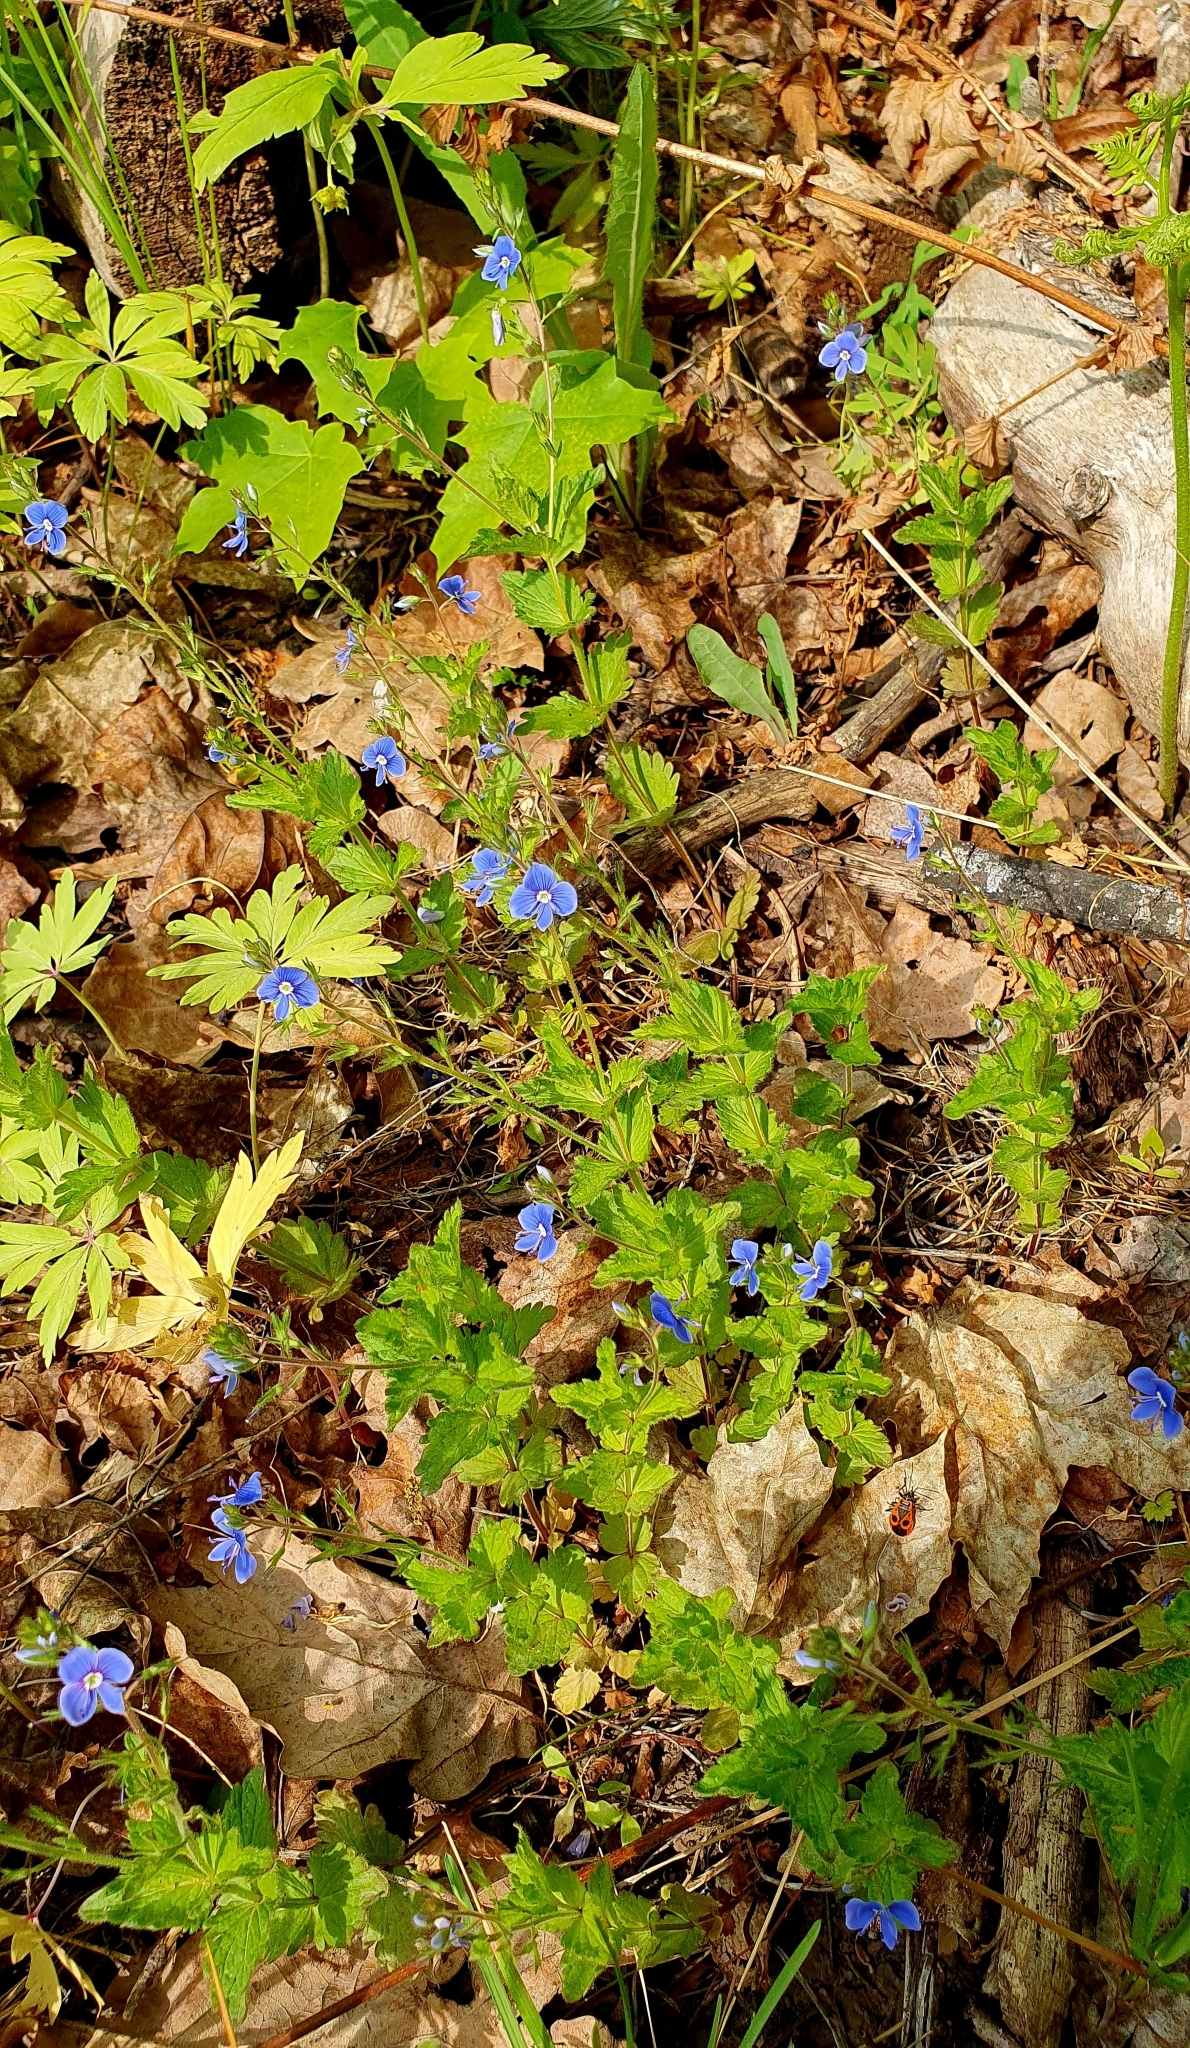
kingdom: Plantae
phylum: Tracheophyta
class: Magnoliopsida
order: Lamiales
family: Plantaginaceae
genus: Veronica
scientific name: Veronica chamaedrys
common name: Germander speedwell
